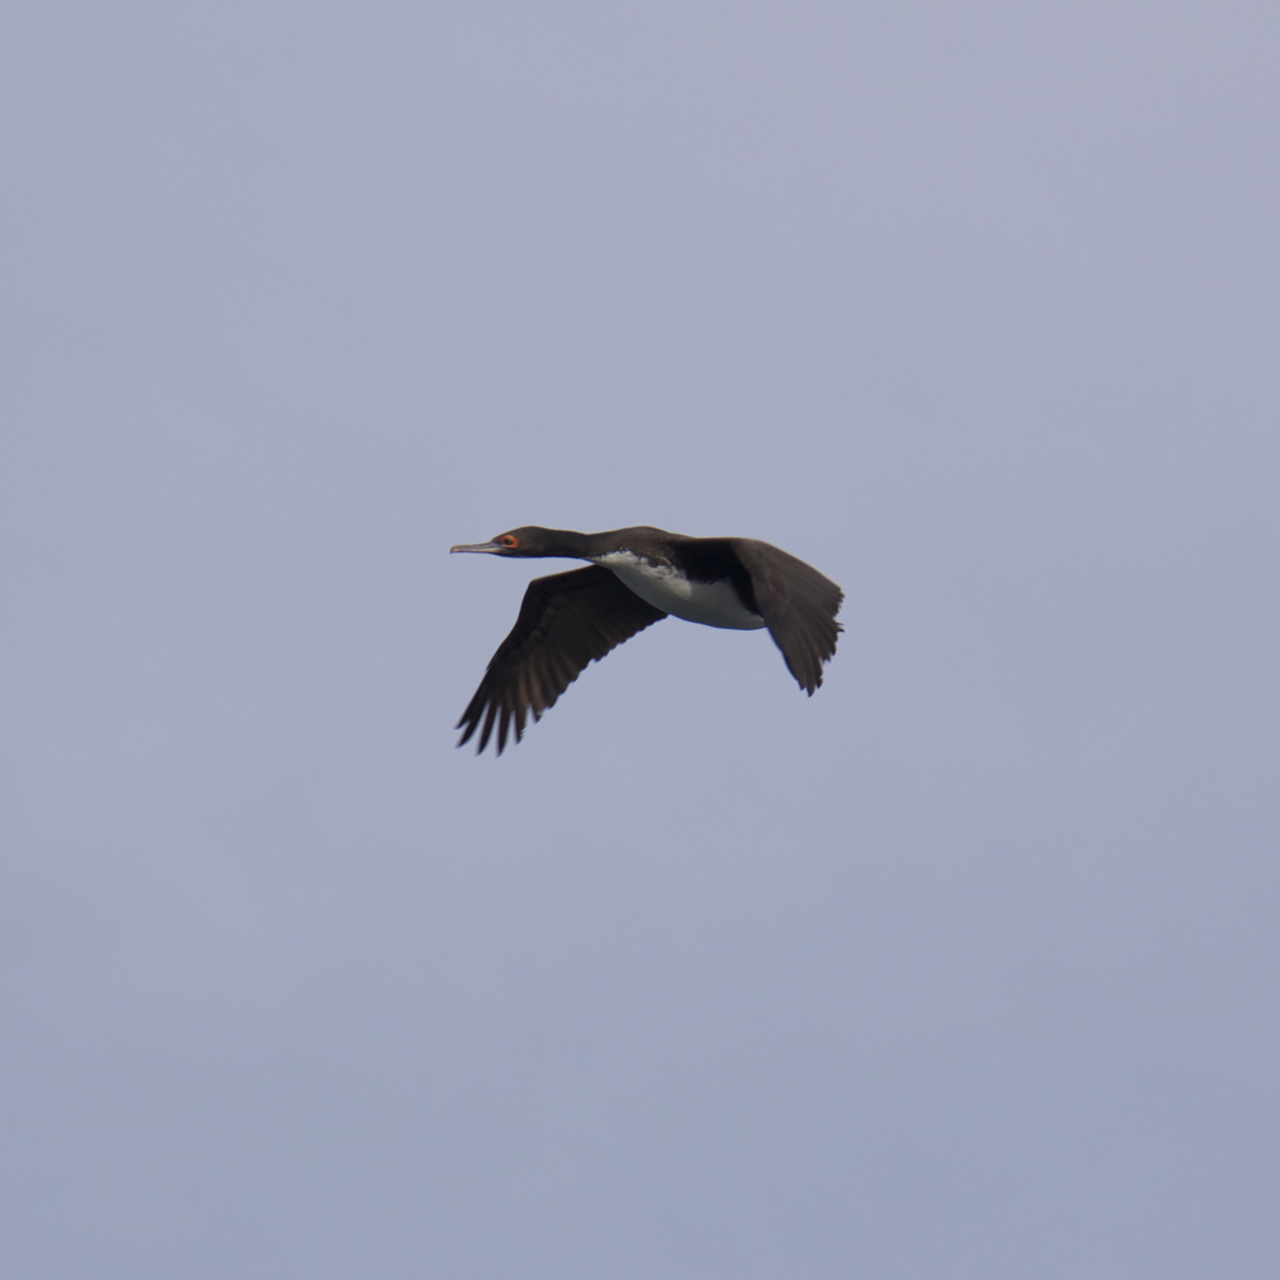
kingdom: Animalia
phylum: Chordata
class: Aves
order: Suliformes
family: Phalacrocoracidae
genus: Leucocarbo
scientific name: Leucocarbo bougainvillii
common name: Guanay cormorant
